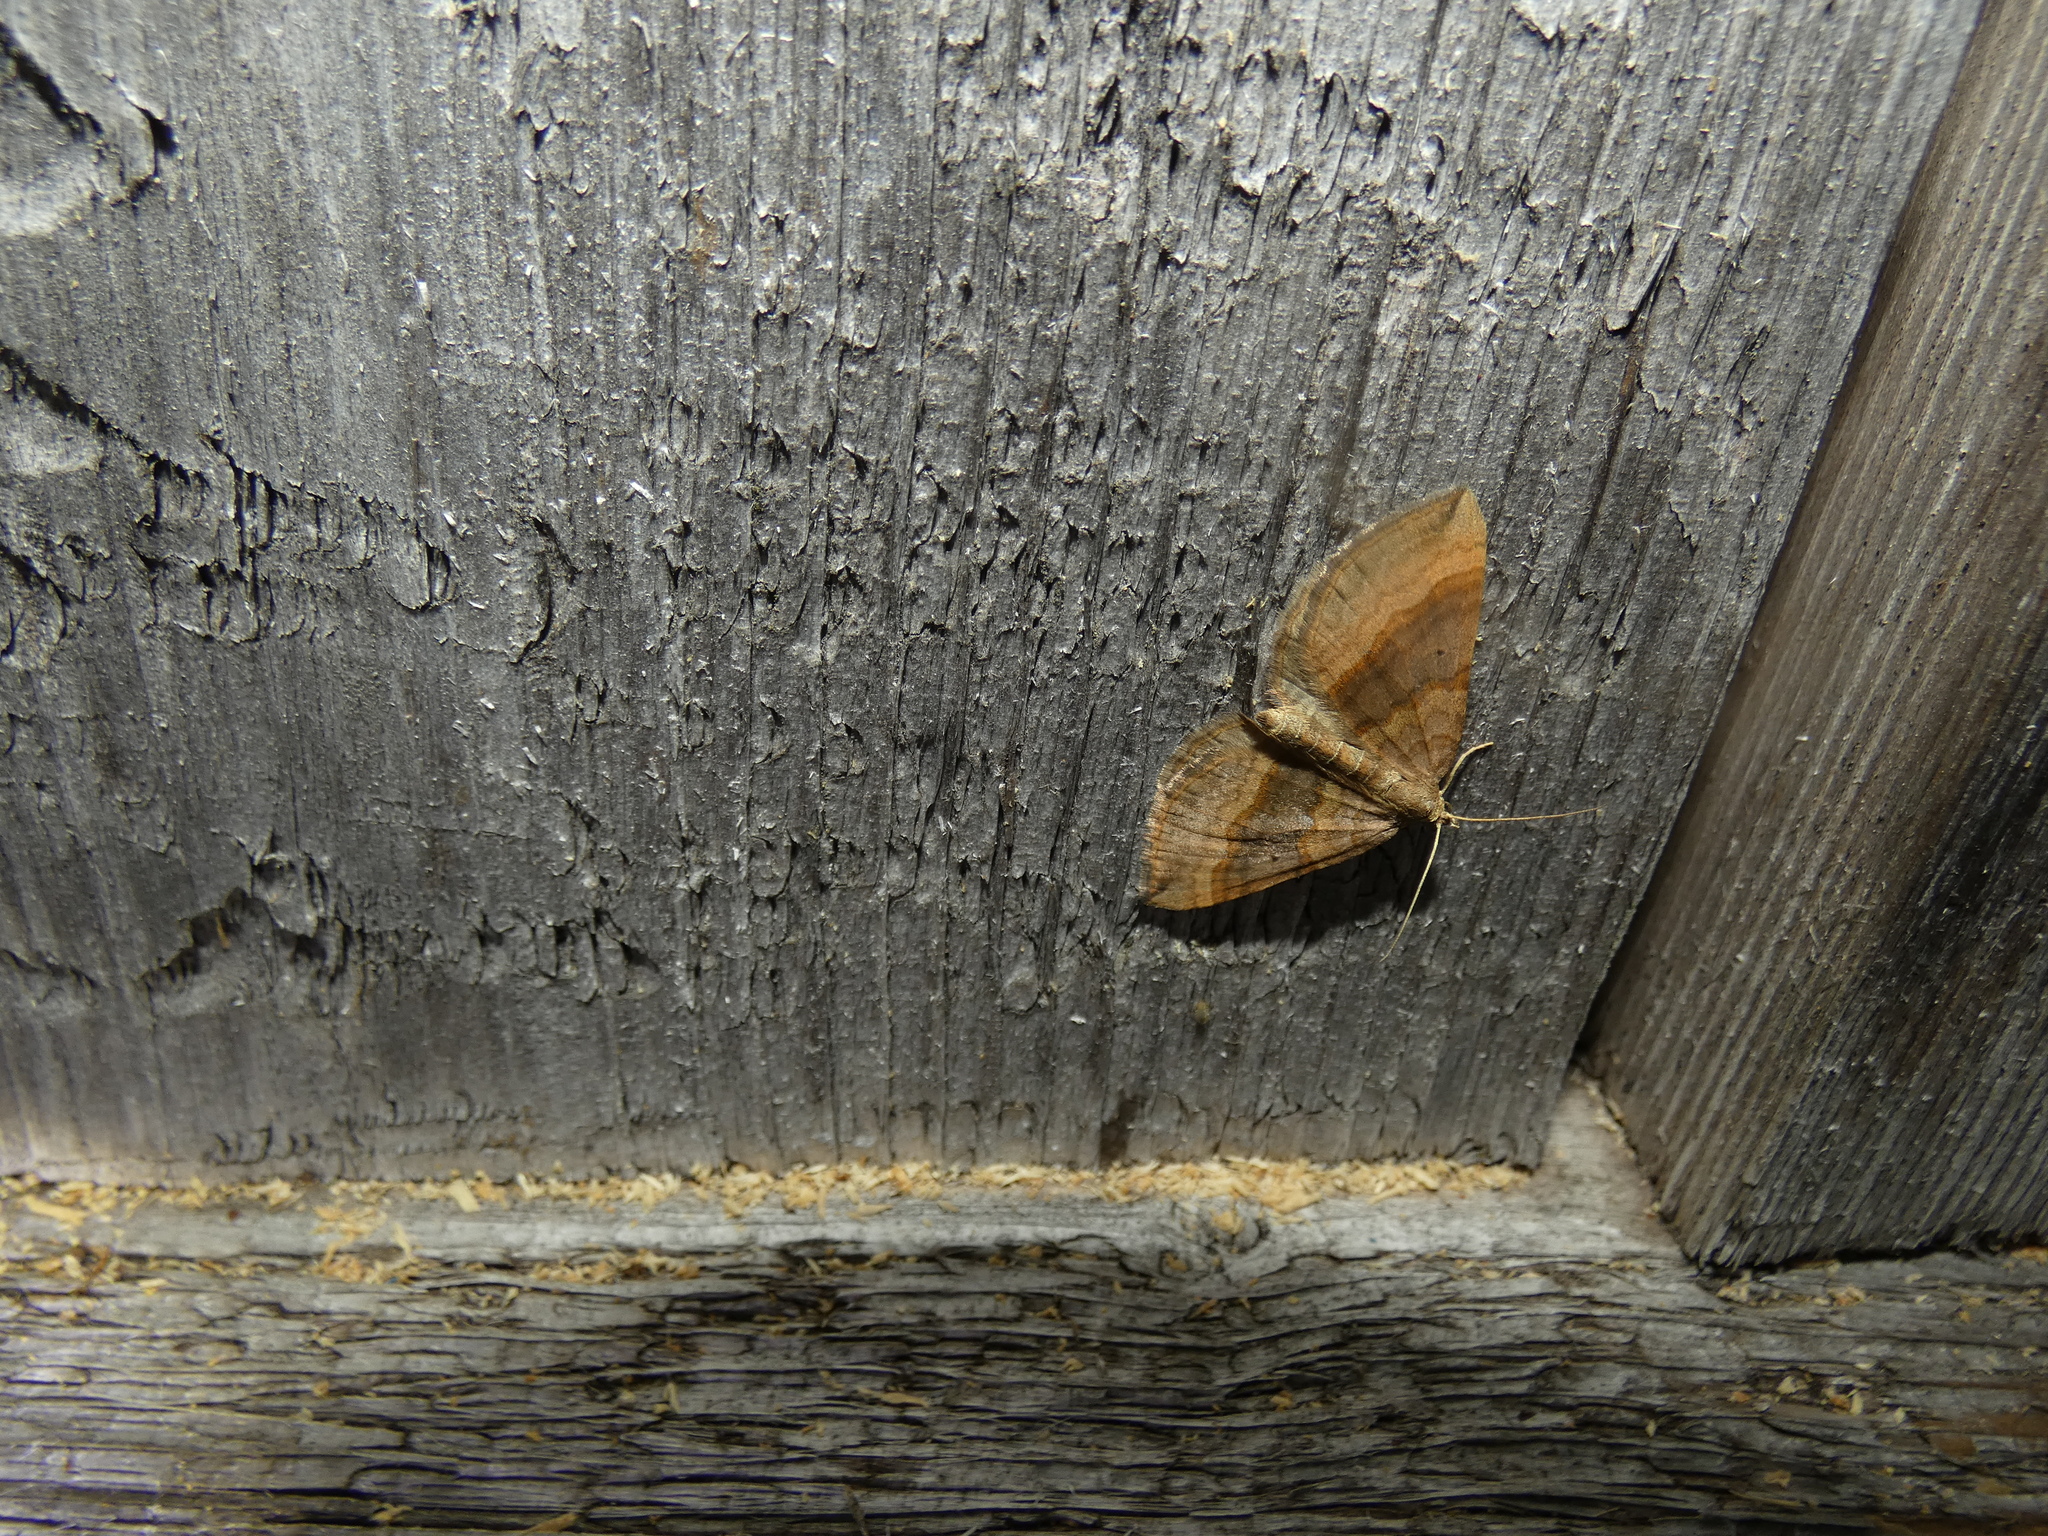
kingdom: Animalia
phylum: Arthropoda
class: Insecta
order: Lepidoptera
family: Geometridae
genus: Scotopteryx
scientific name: Scotopteryx chenopodiata
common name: Shaded broad-bar
